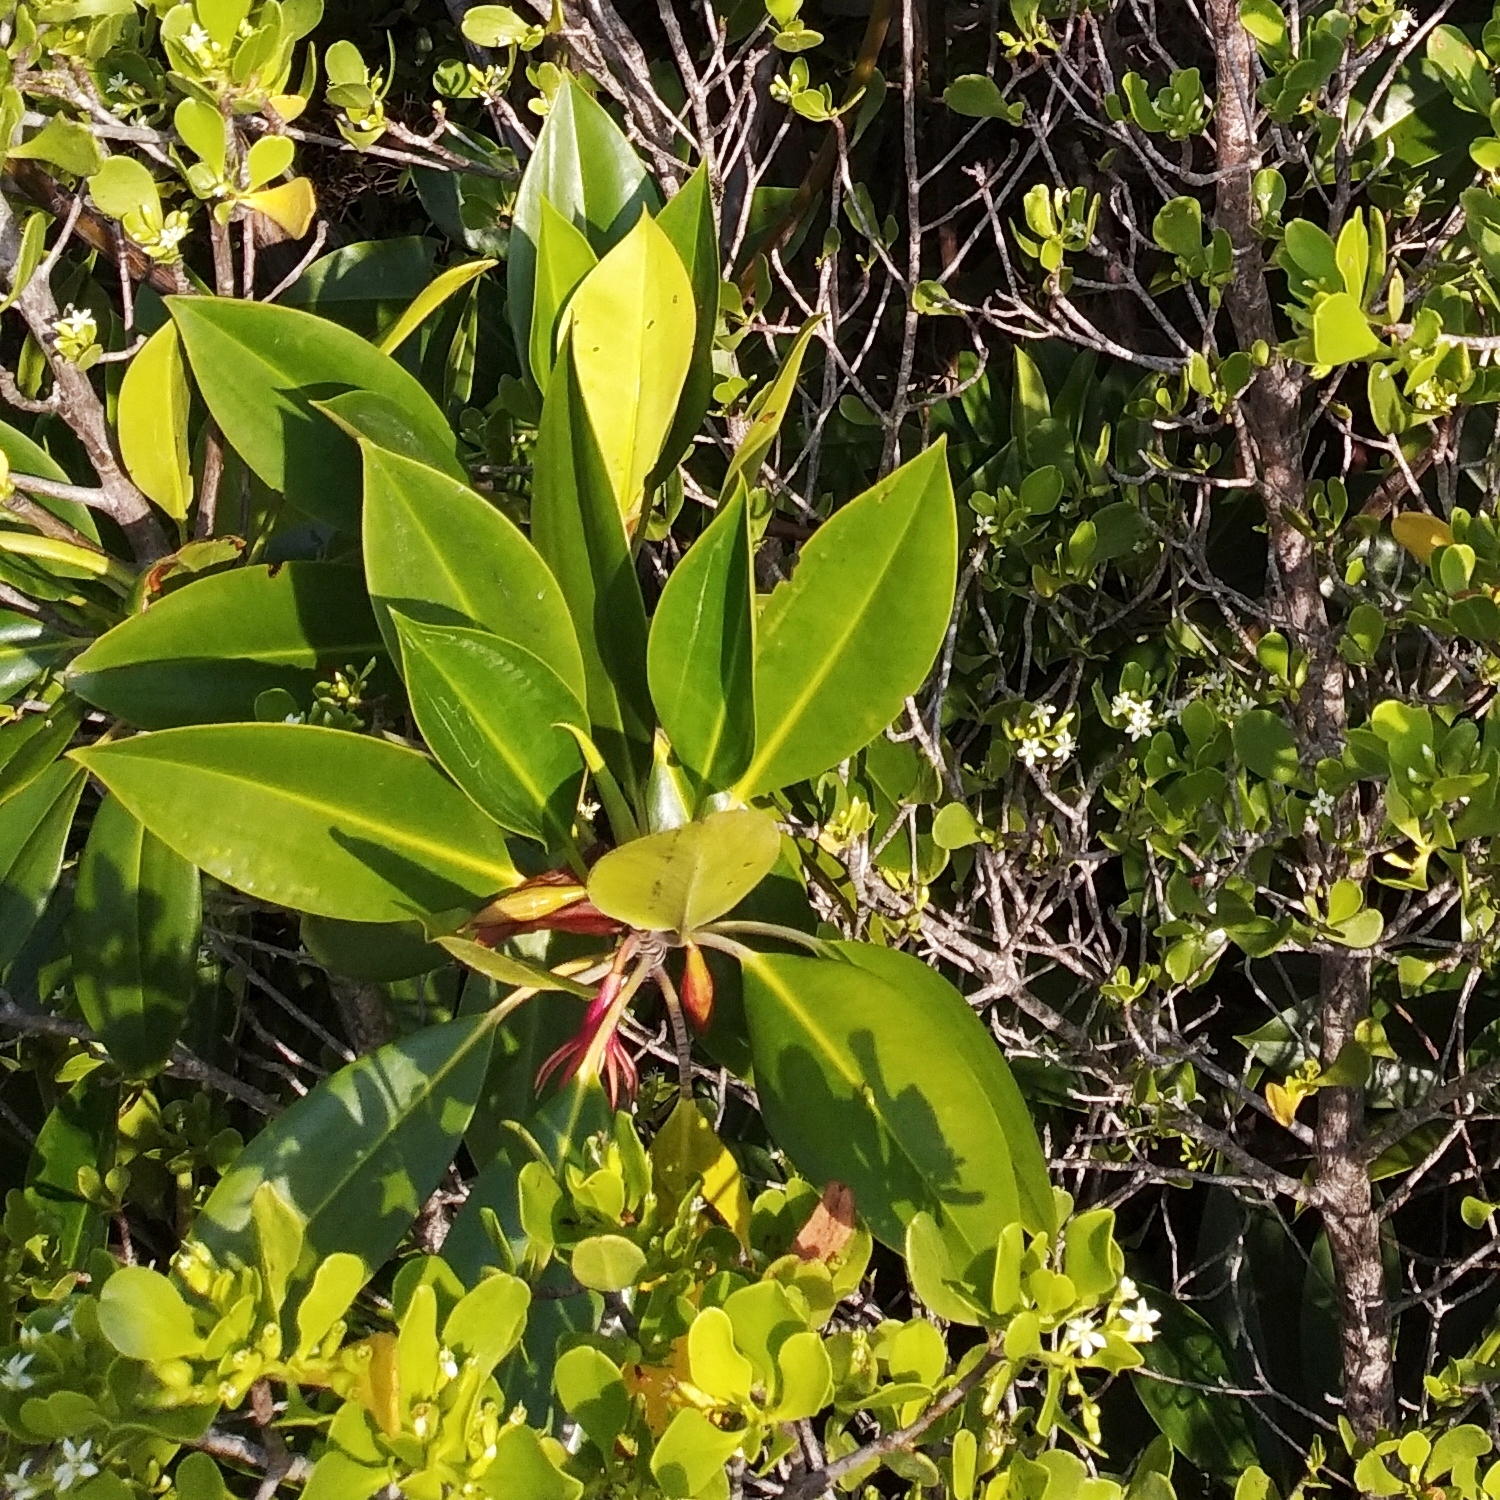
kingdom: Plantae
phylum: Tracheophyta
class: Magnoliopsida
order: Malpighiales
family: Rhizophoraceae
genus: Bruguiera
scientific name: Bruguiera gymnorhiza
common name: Oriental mangrove
